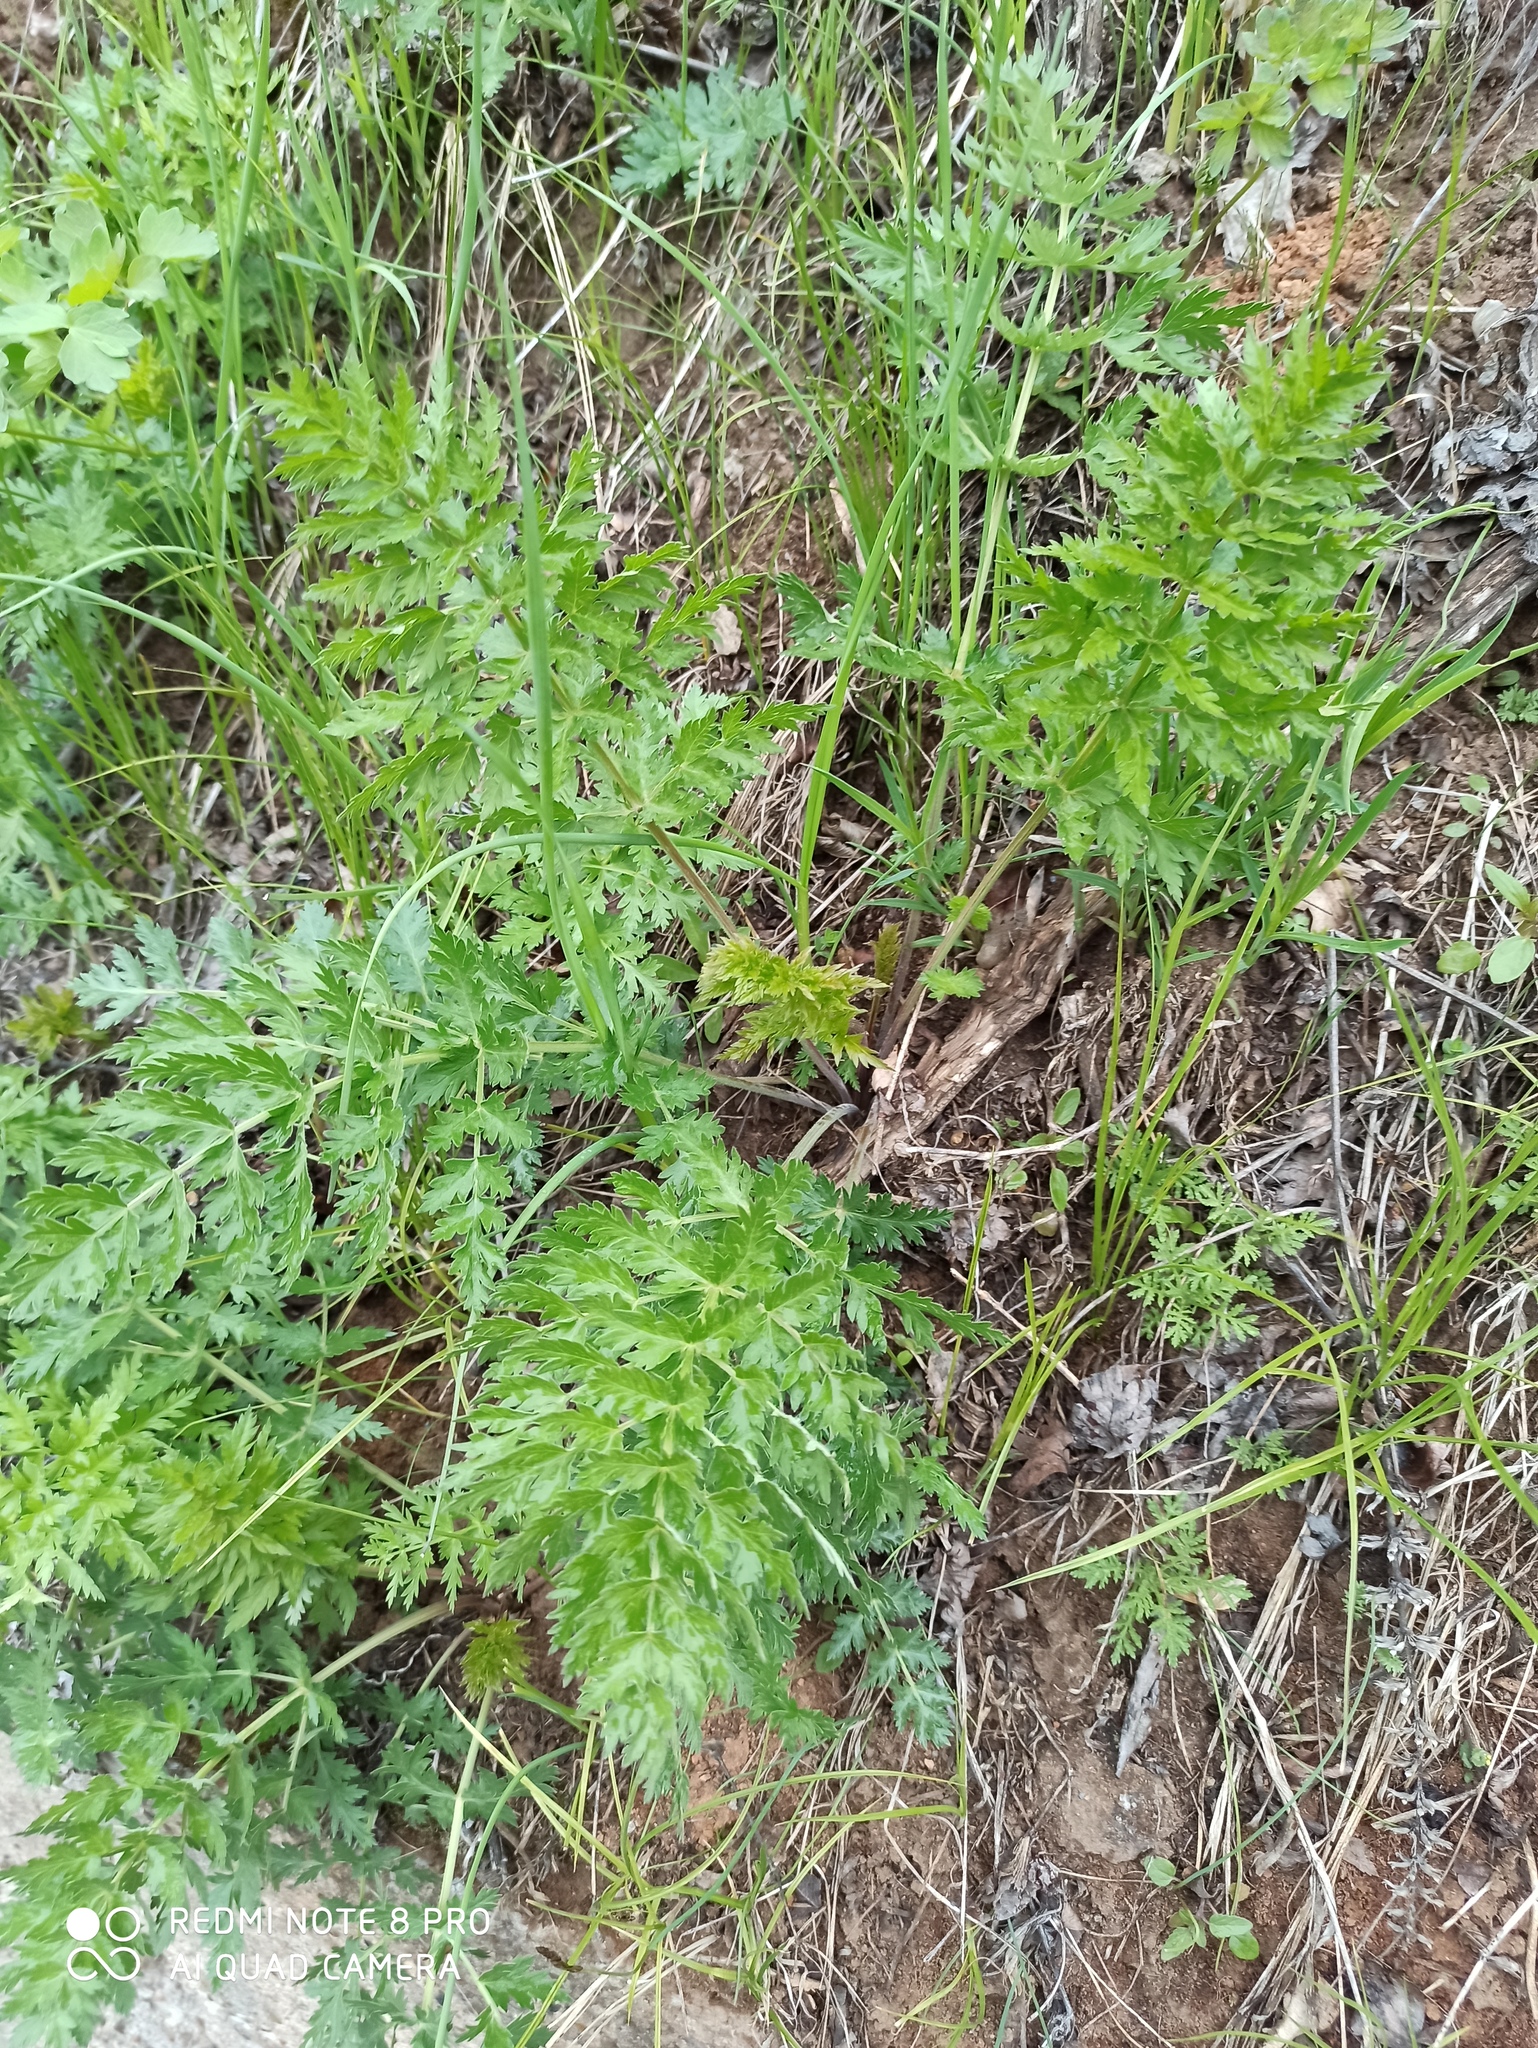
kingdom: Plantae
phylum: Tracheophyta
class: Magnoliopsida
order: Apiales
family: Apiaceae
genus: Seseli
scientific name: Seseli libanotis
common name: Mooncarrot
